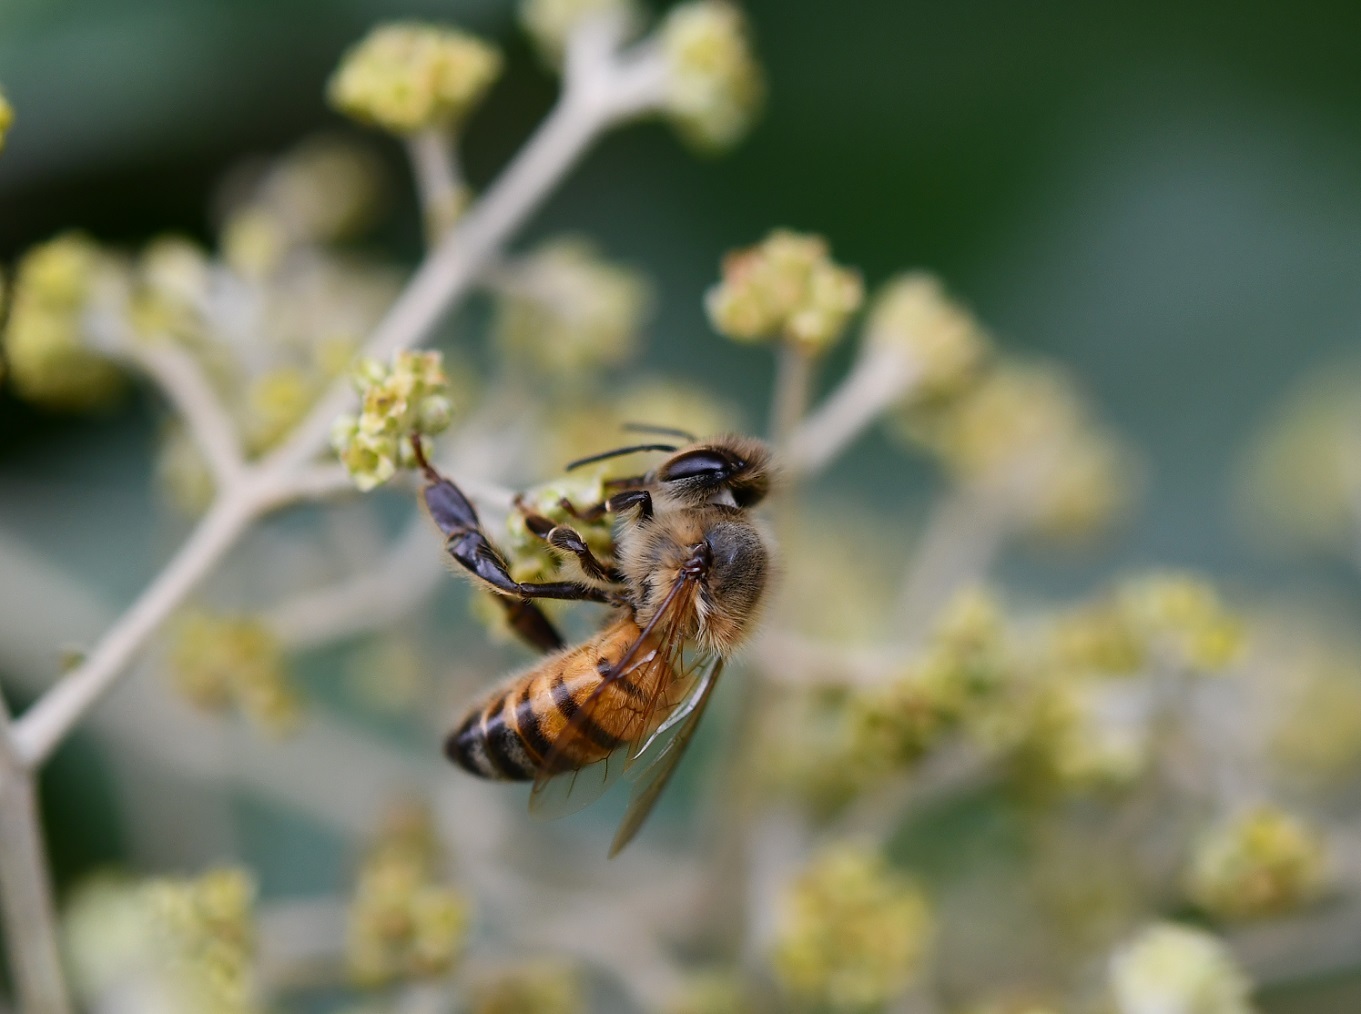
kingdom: Animalia
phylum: Arthropoda
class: Insecta
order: Hymenoptera
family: Apidae
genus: Apis
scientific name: Apis mellifera
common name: Honey bee
